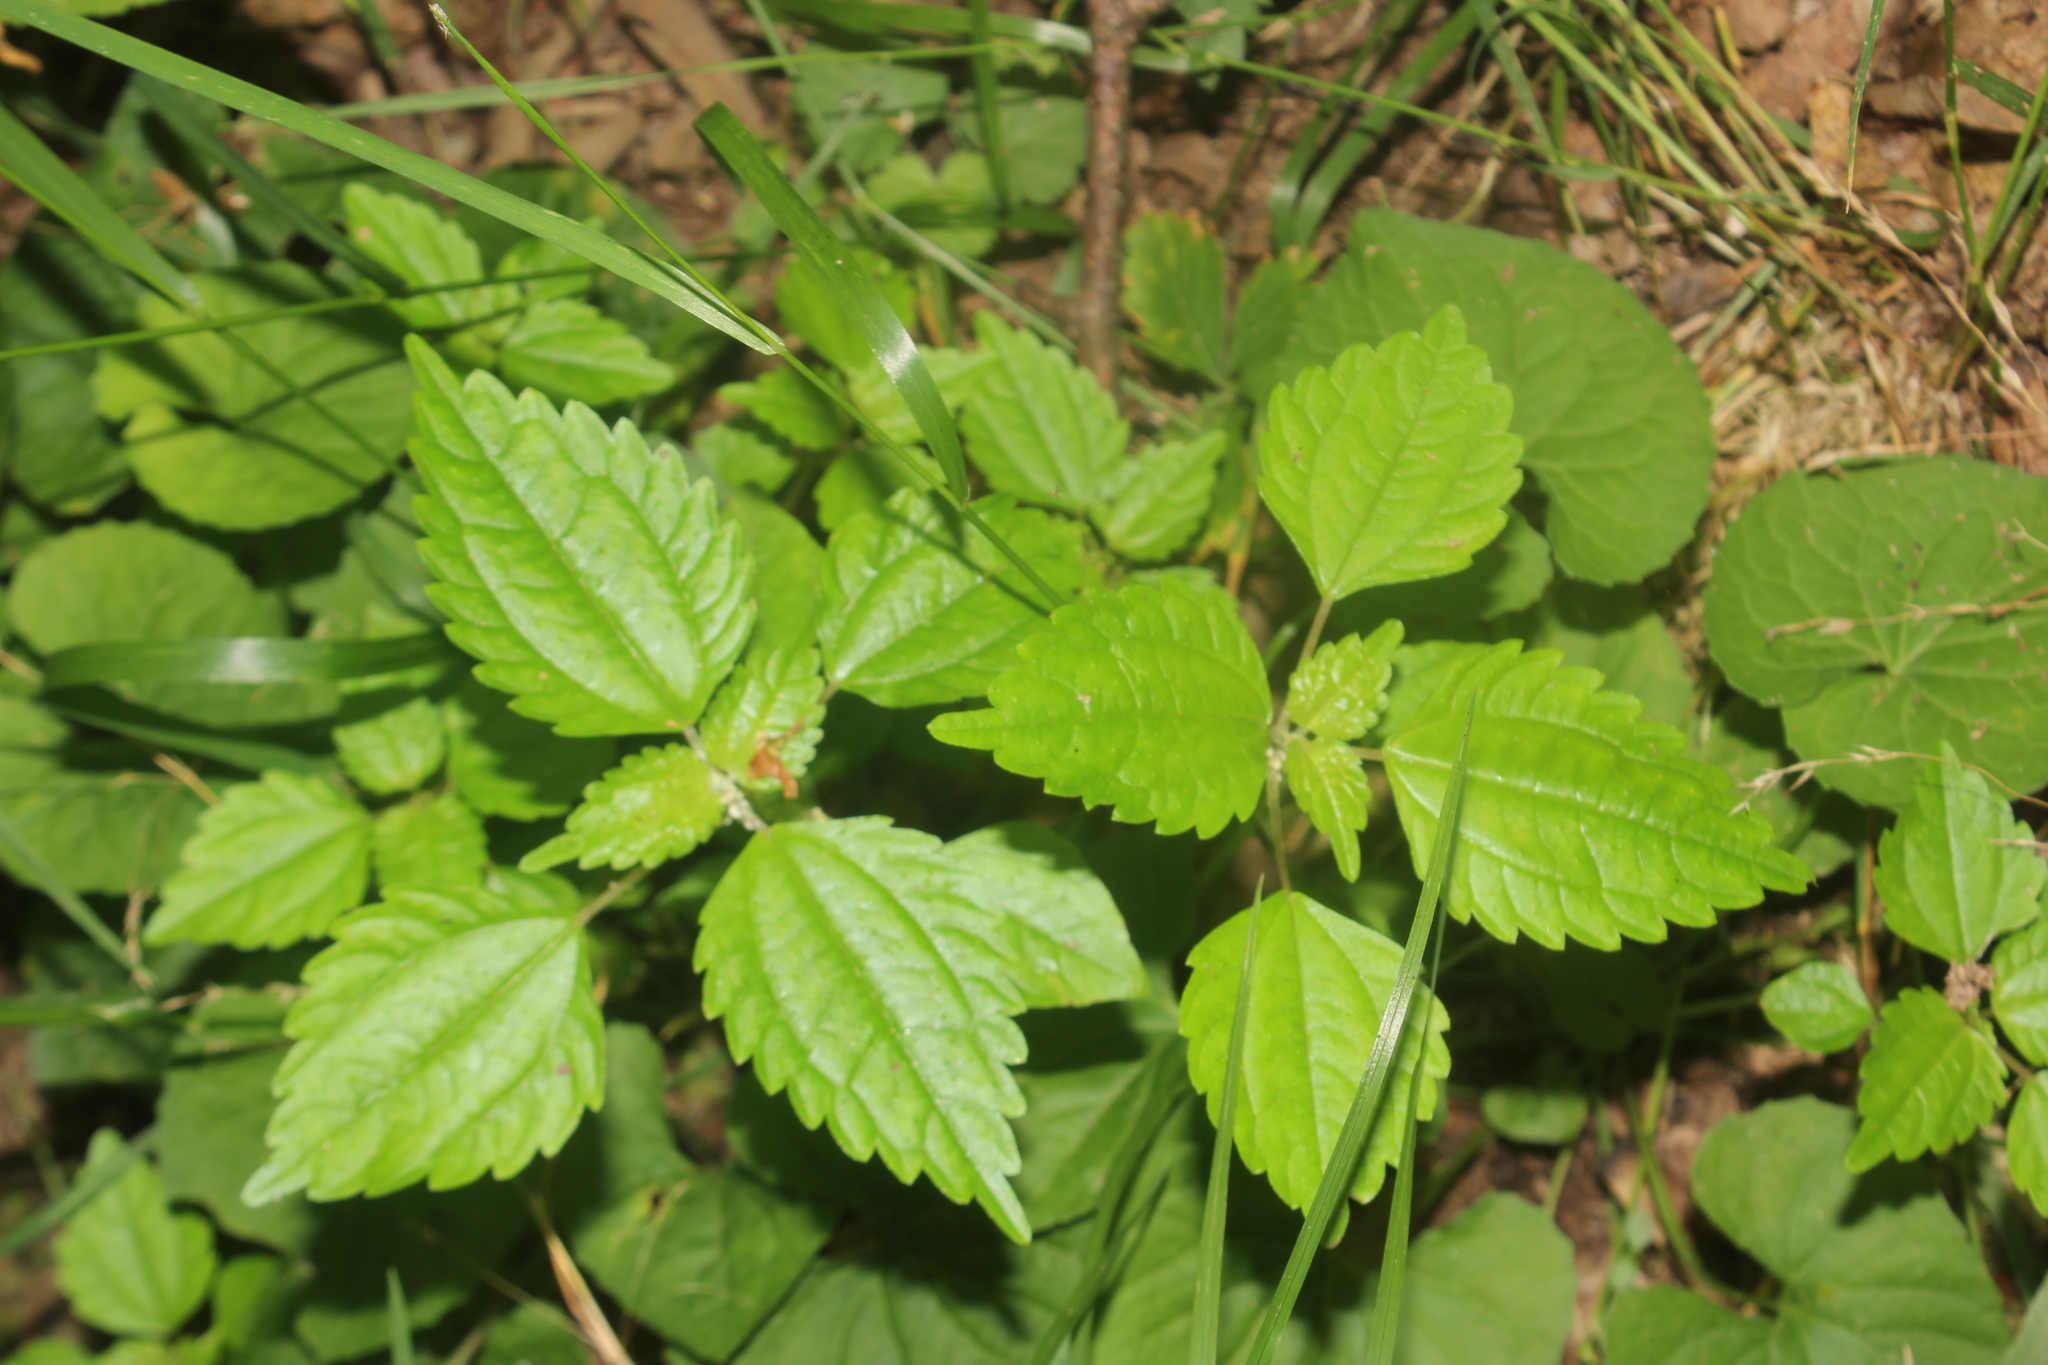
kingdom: Plantae
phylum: Tracheophyta
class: Magnoliopsida
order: Rosales
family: Urticaceae
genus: Pilea
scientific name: Pilea pumila
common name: Clearweed
